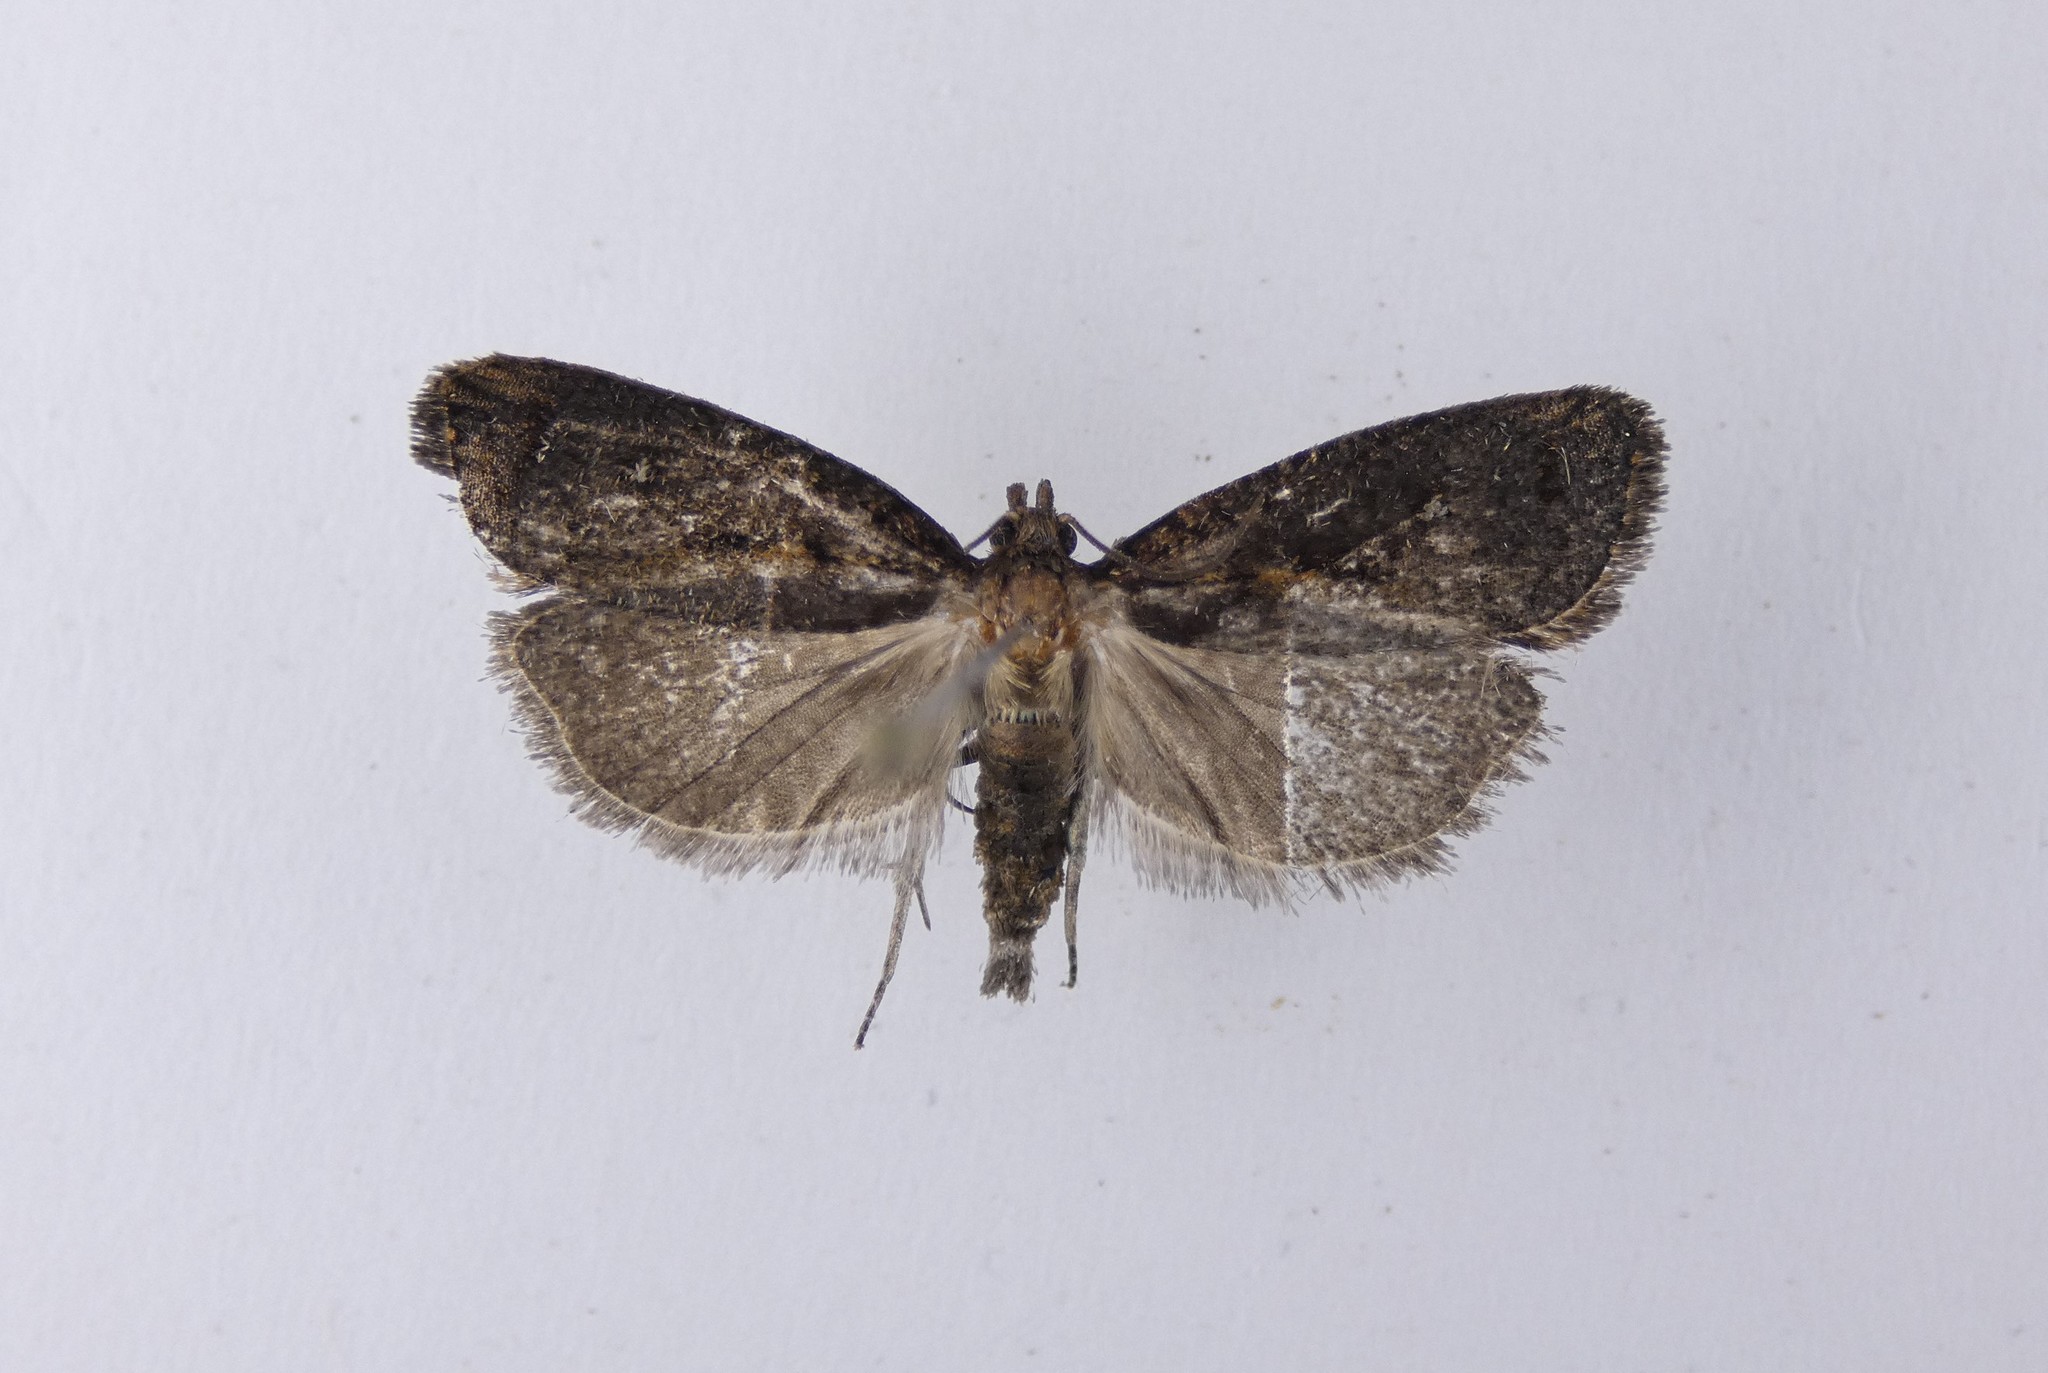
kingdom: Animalia
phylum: Arthropoda
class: Insecta
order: Lepidoptera
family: Tortricidae
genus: Cryptaspasma
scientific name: Cryptaspasma querula
